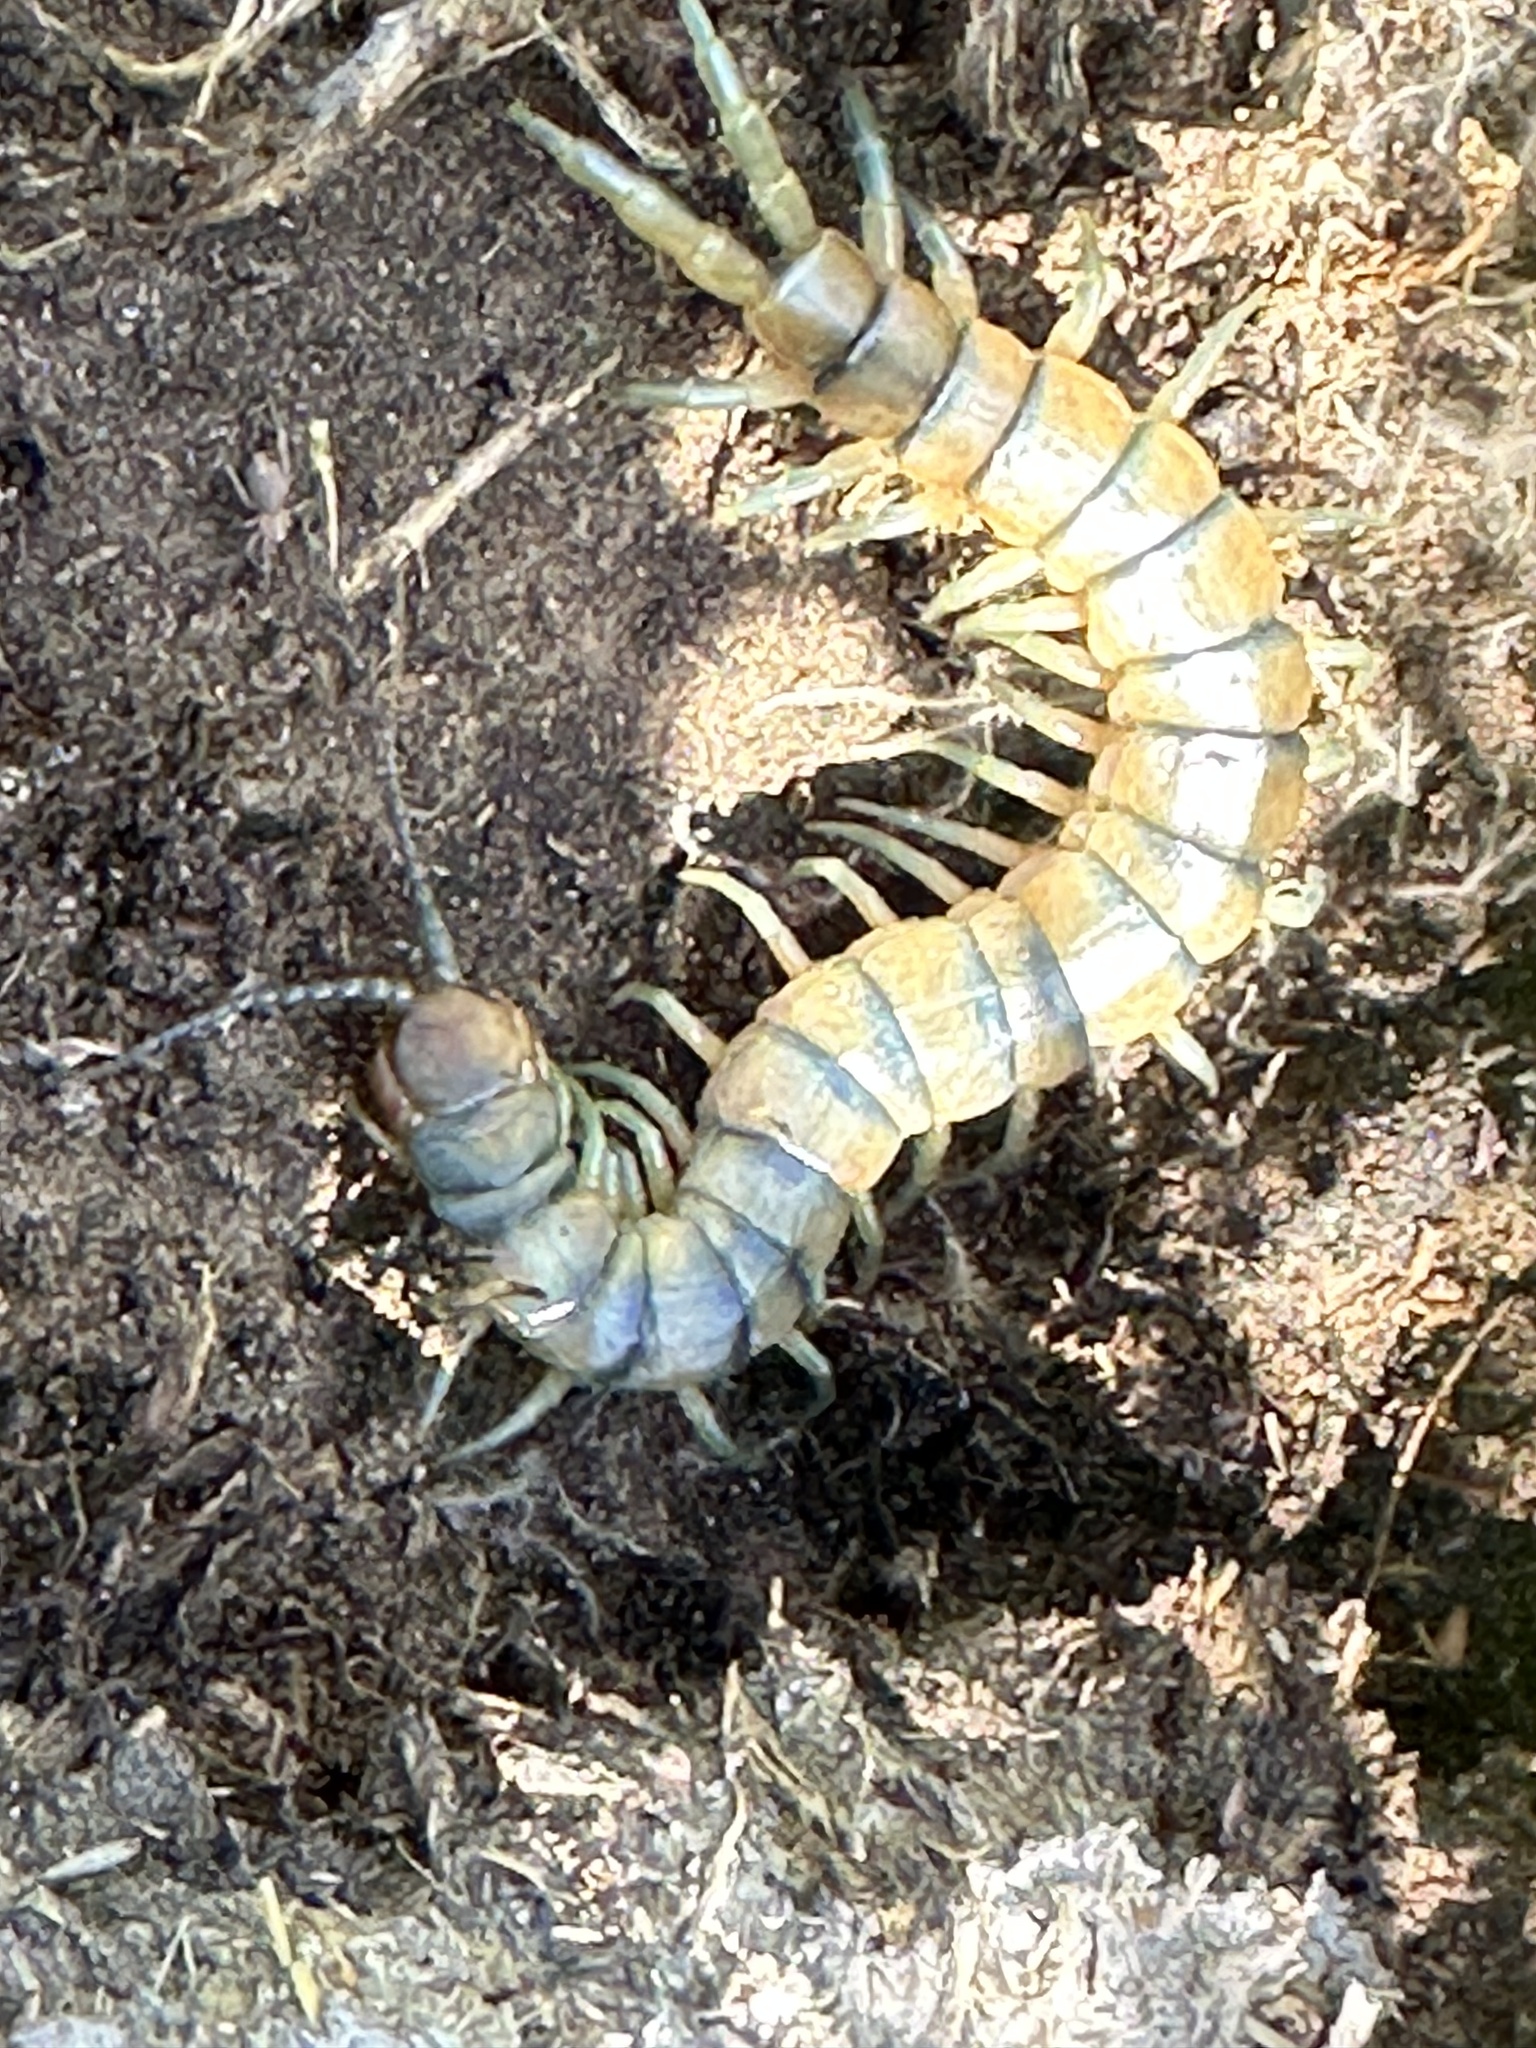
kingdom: Animalia
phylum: Arthropoda
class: Chilopoda
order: Scolopendromorpha
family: Scolopendridae
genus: Scolopendra
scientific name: Scolopendra polymorpha
